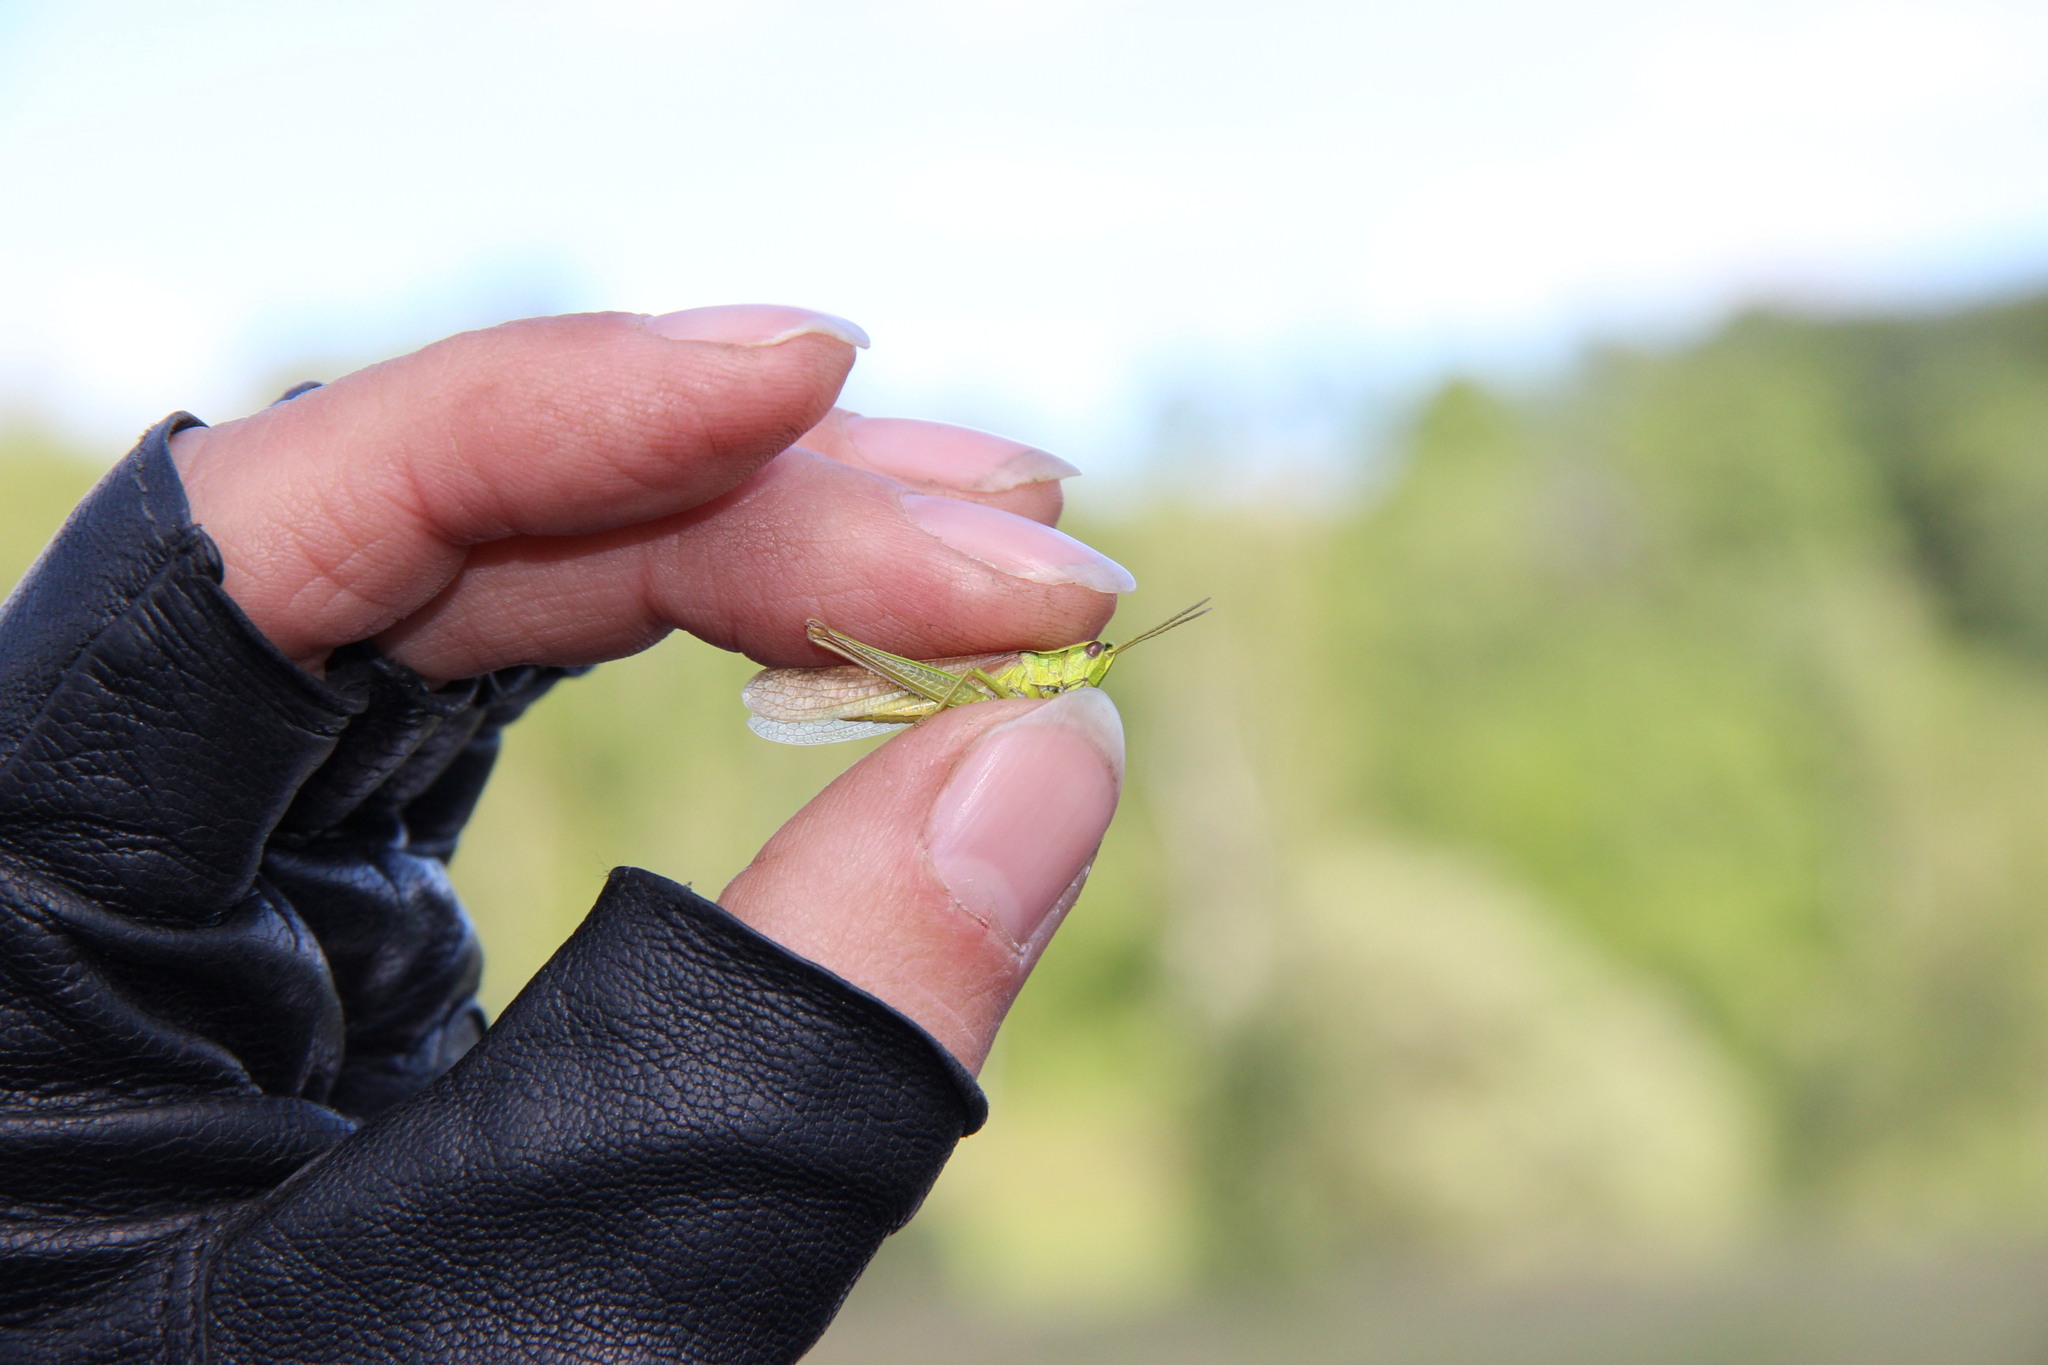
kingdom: Animalia
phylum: Arthropoda
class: Insecta
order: Orthoptera
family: Acrididae
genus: Euthystira
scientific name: Euthystira brachyptera
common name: Small gold grasshopper
